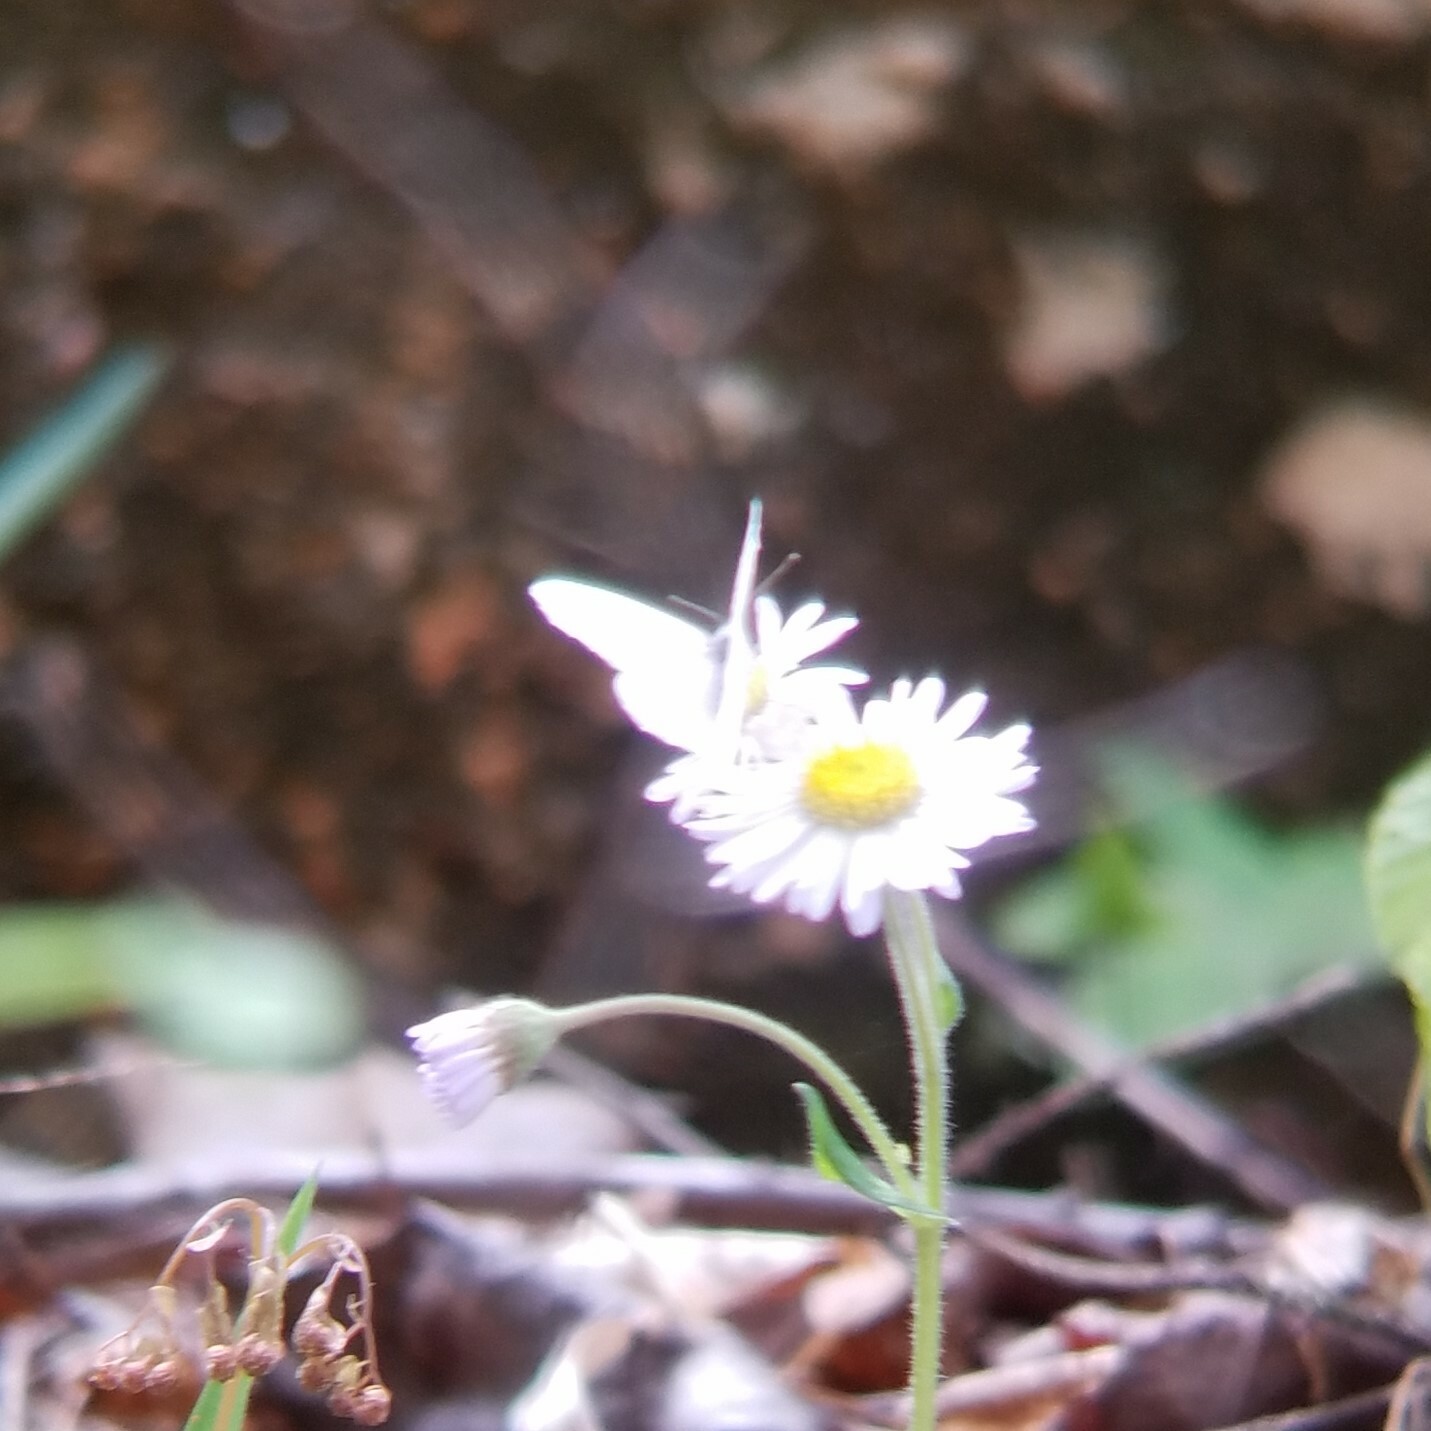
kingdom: Animalia
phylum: Arthropoda
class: Insecta
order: Lepidoptera
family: Pieridae
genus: Pieris
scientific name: Pieris virginiensis
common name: West virginia white
